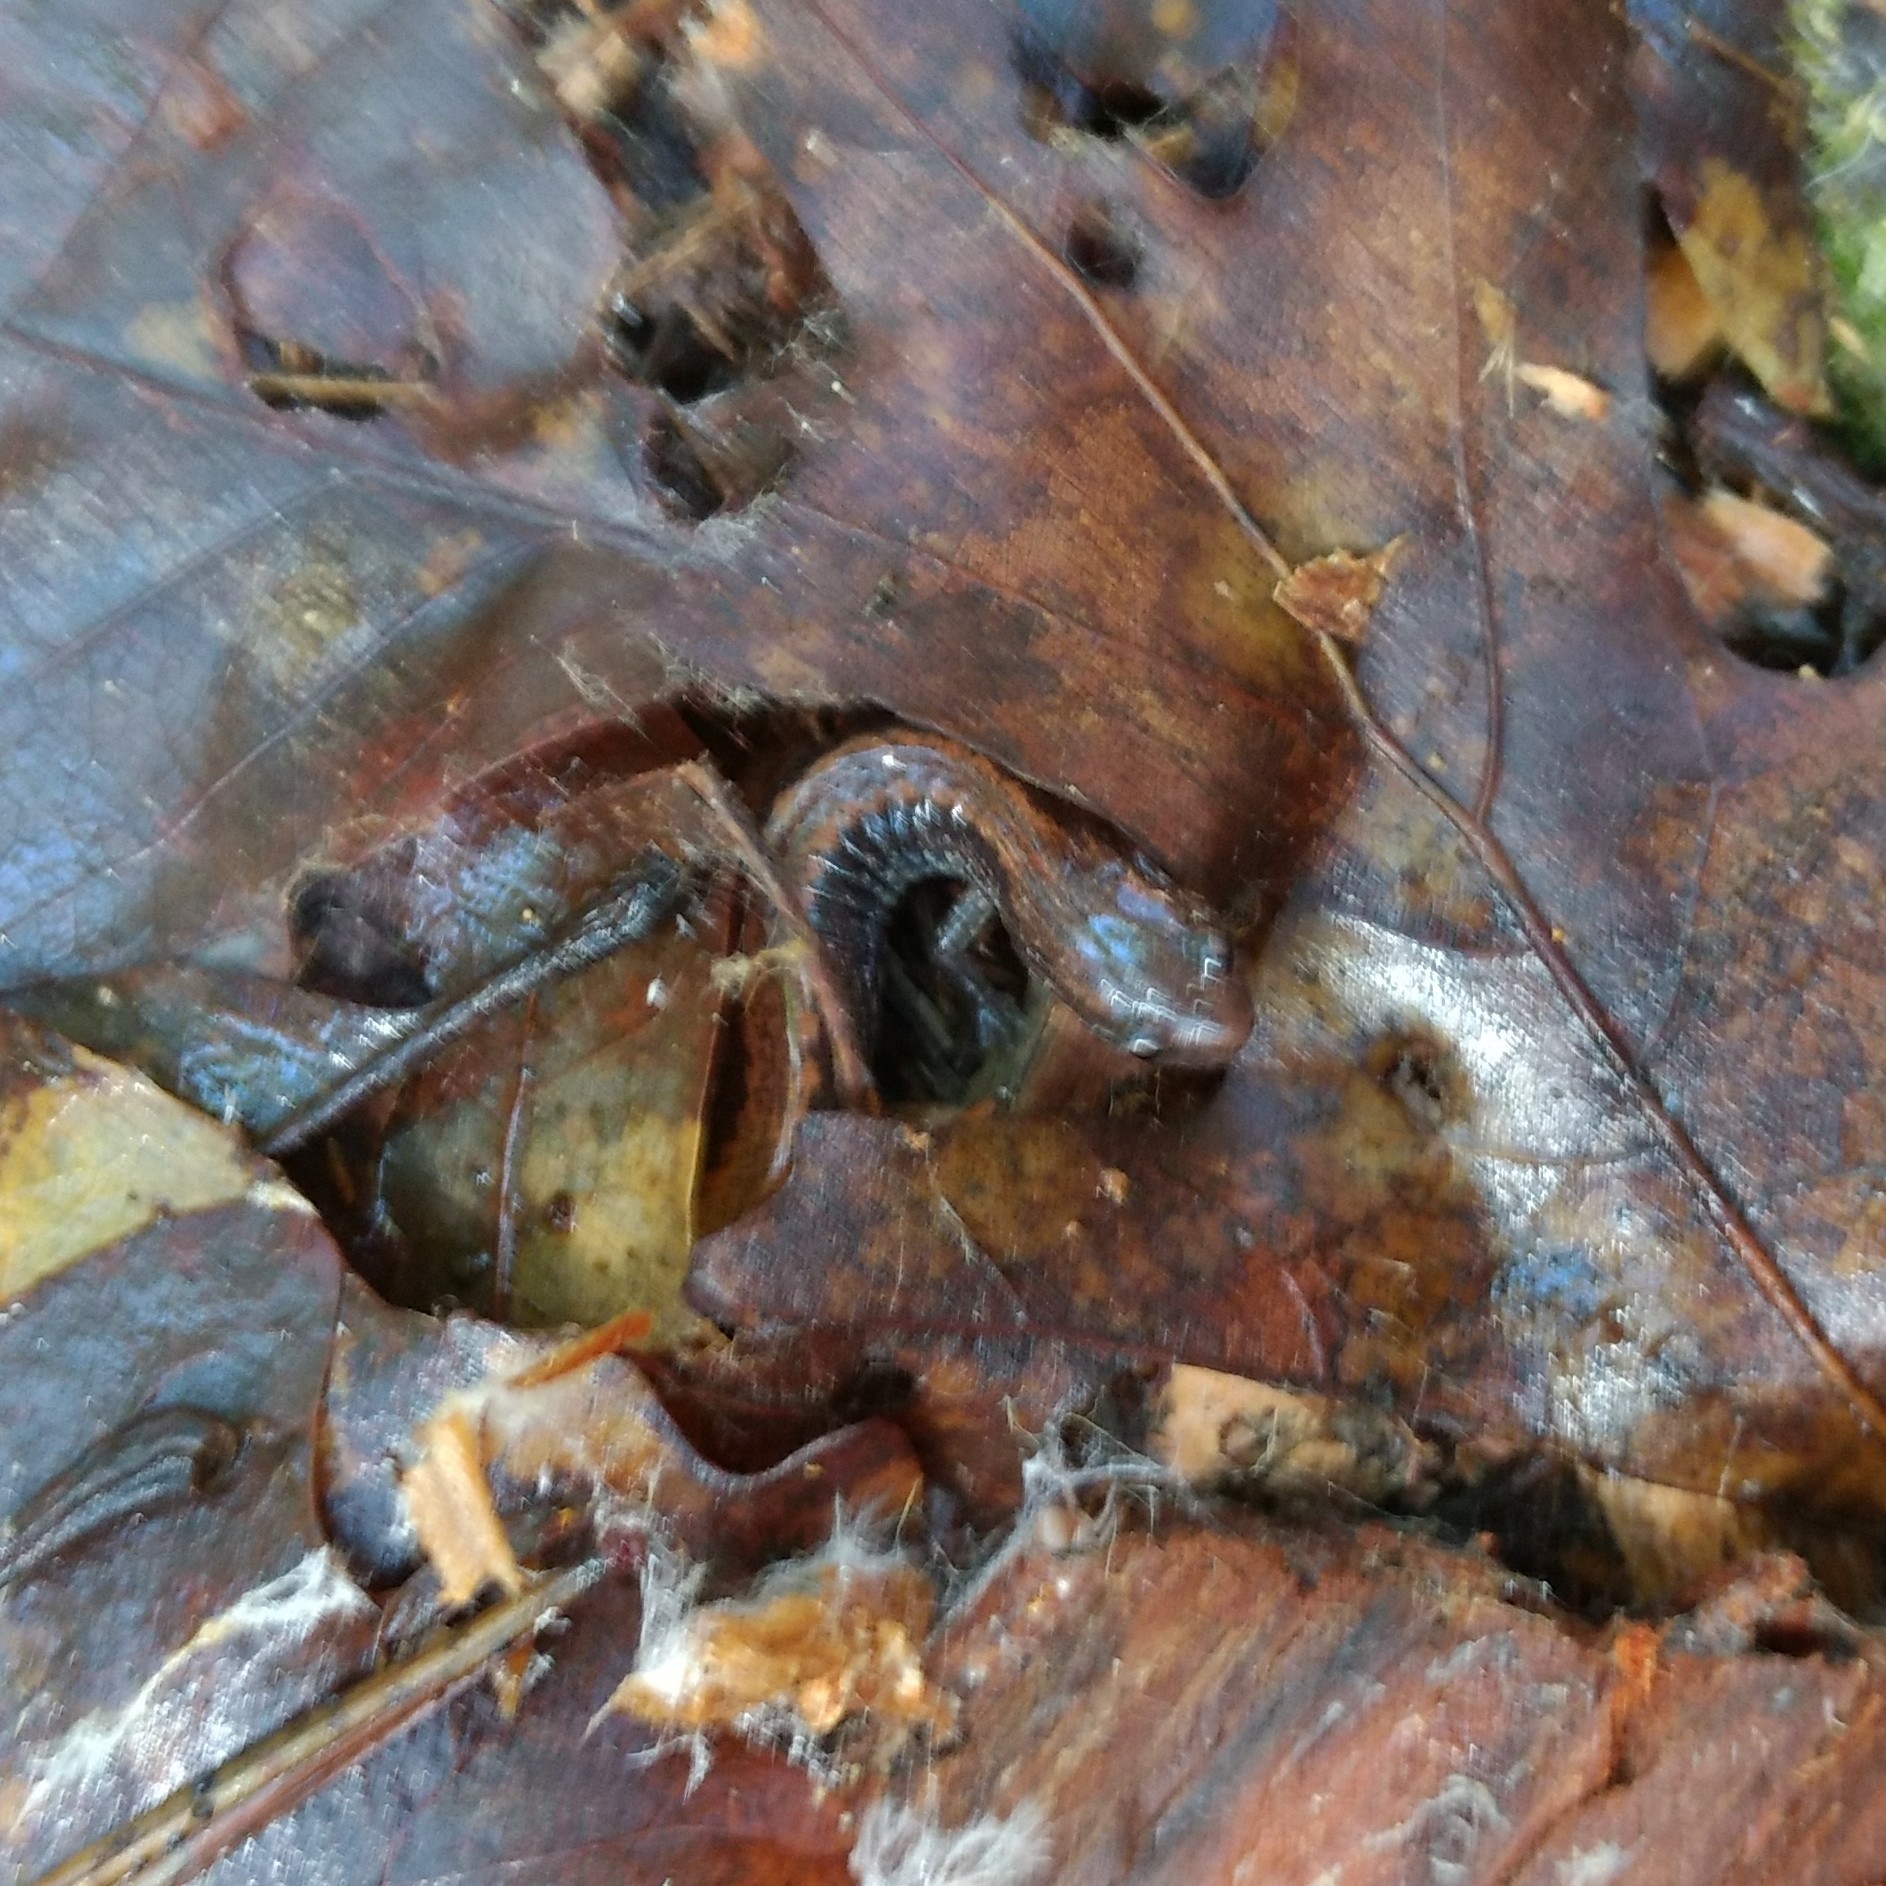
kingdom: Animalia
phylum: Chordata
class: Amphibia
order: Caudata
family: Plethodontidae
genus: Plethodon
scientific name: Plethodon cinereus
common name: Redback salamander
